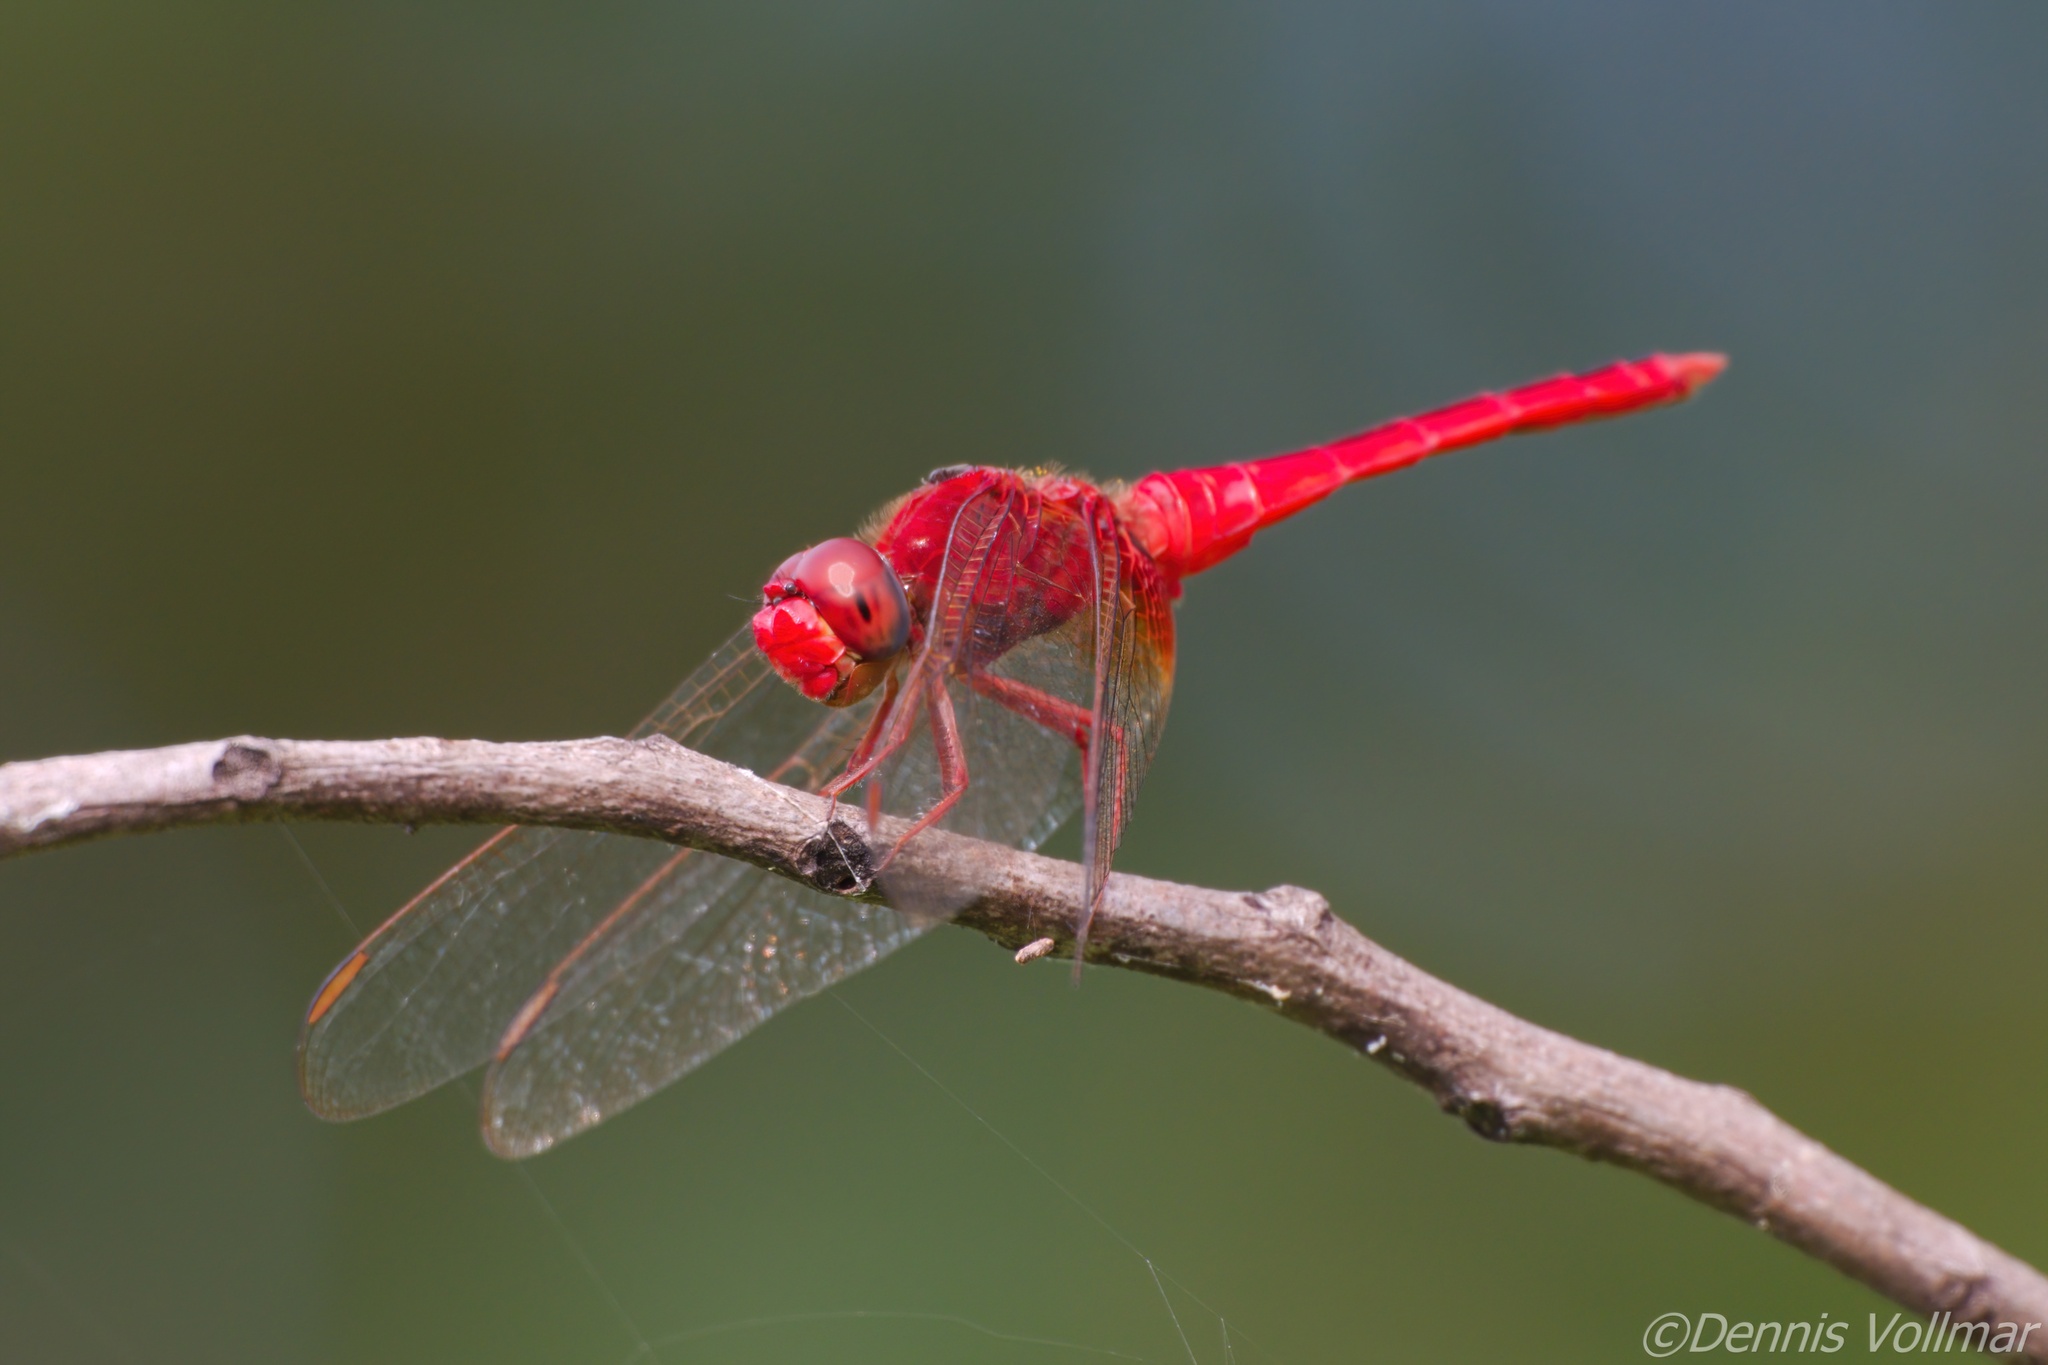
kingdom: Animalia
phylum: Arthropoda
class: Insecta
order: Odonata
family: Libellulidae
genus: Crocothemis
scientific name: Crocothemis servilia
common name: Scarlet skimmer
